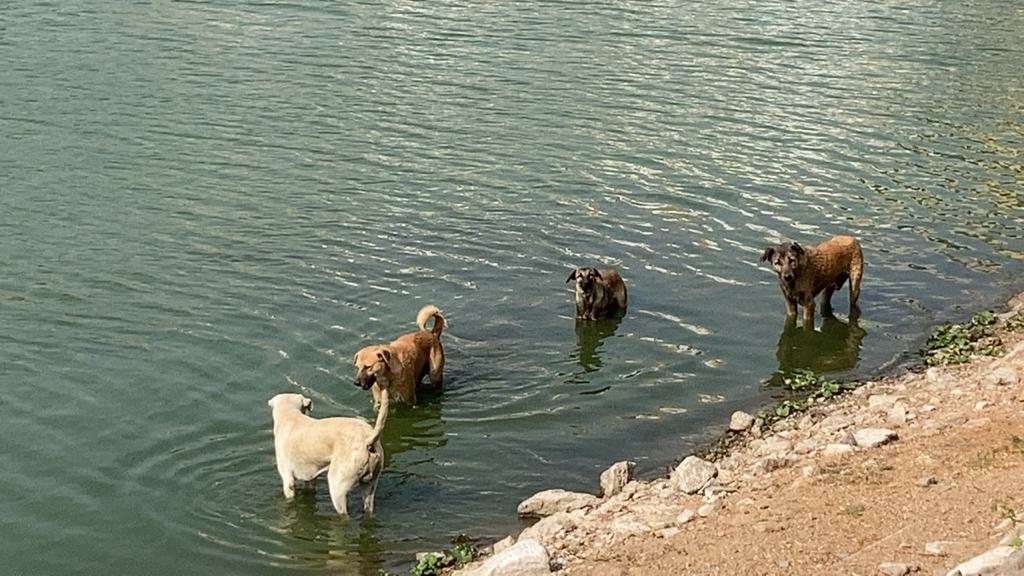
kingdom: Animalia
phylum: Chordata
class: Mammalia
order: Carnivora
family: Canidae
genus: Canis
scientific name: Canis lupus
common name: Gray wolf
